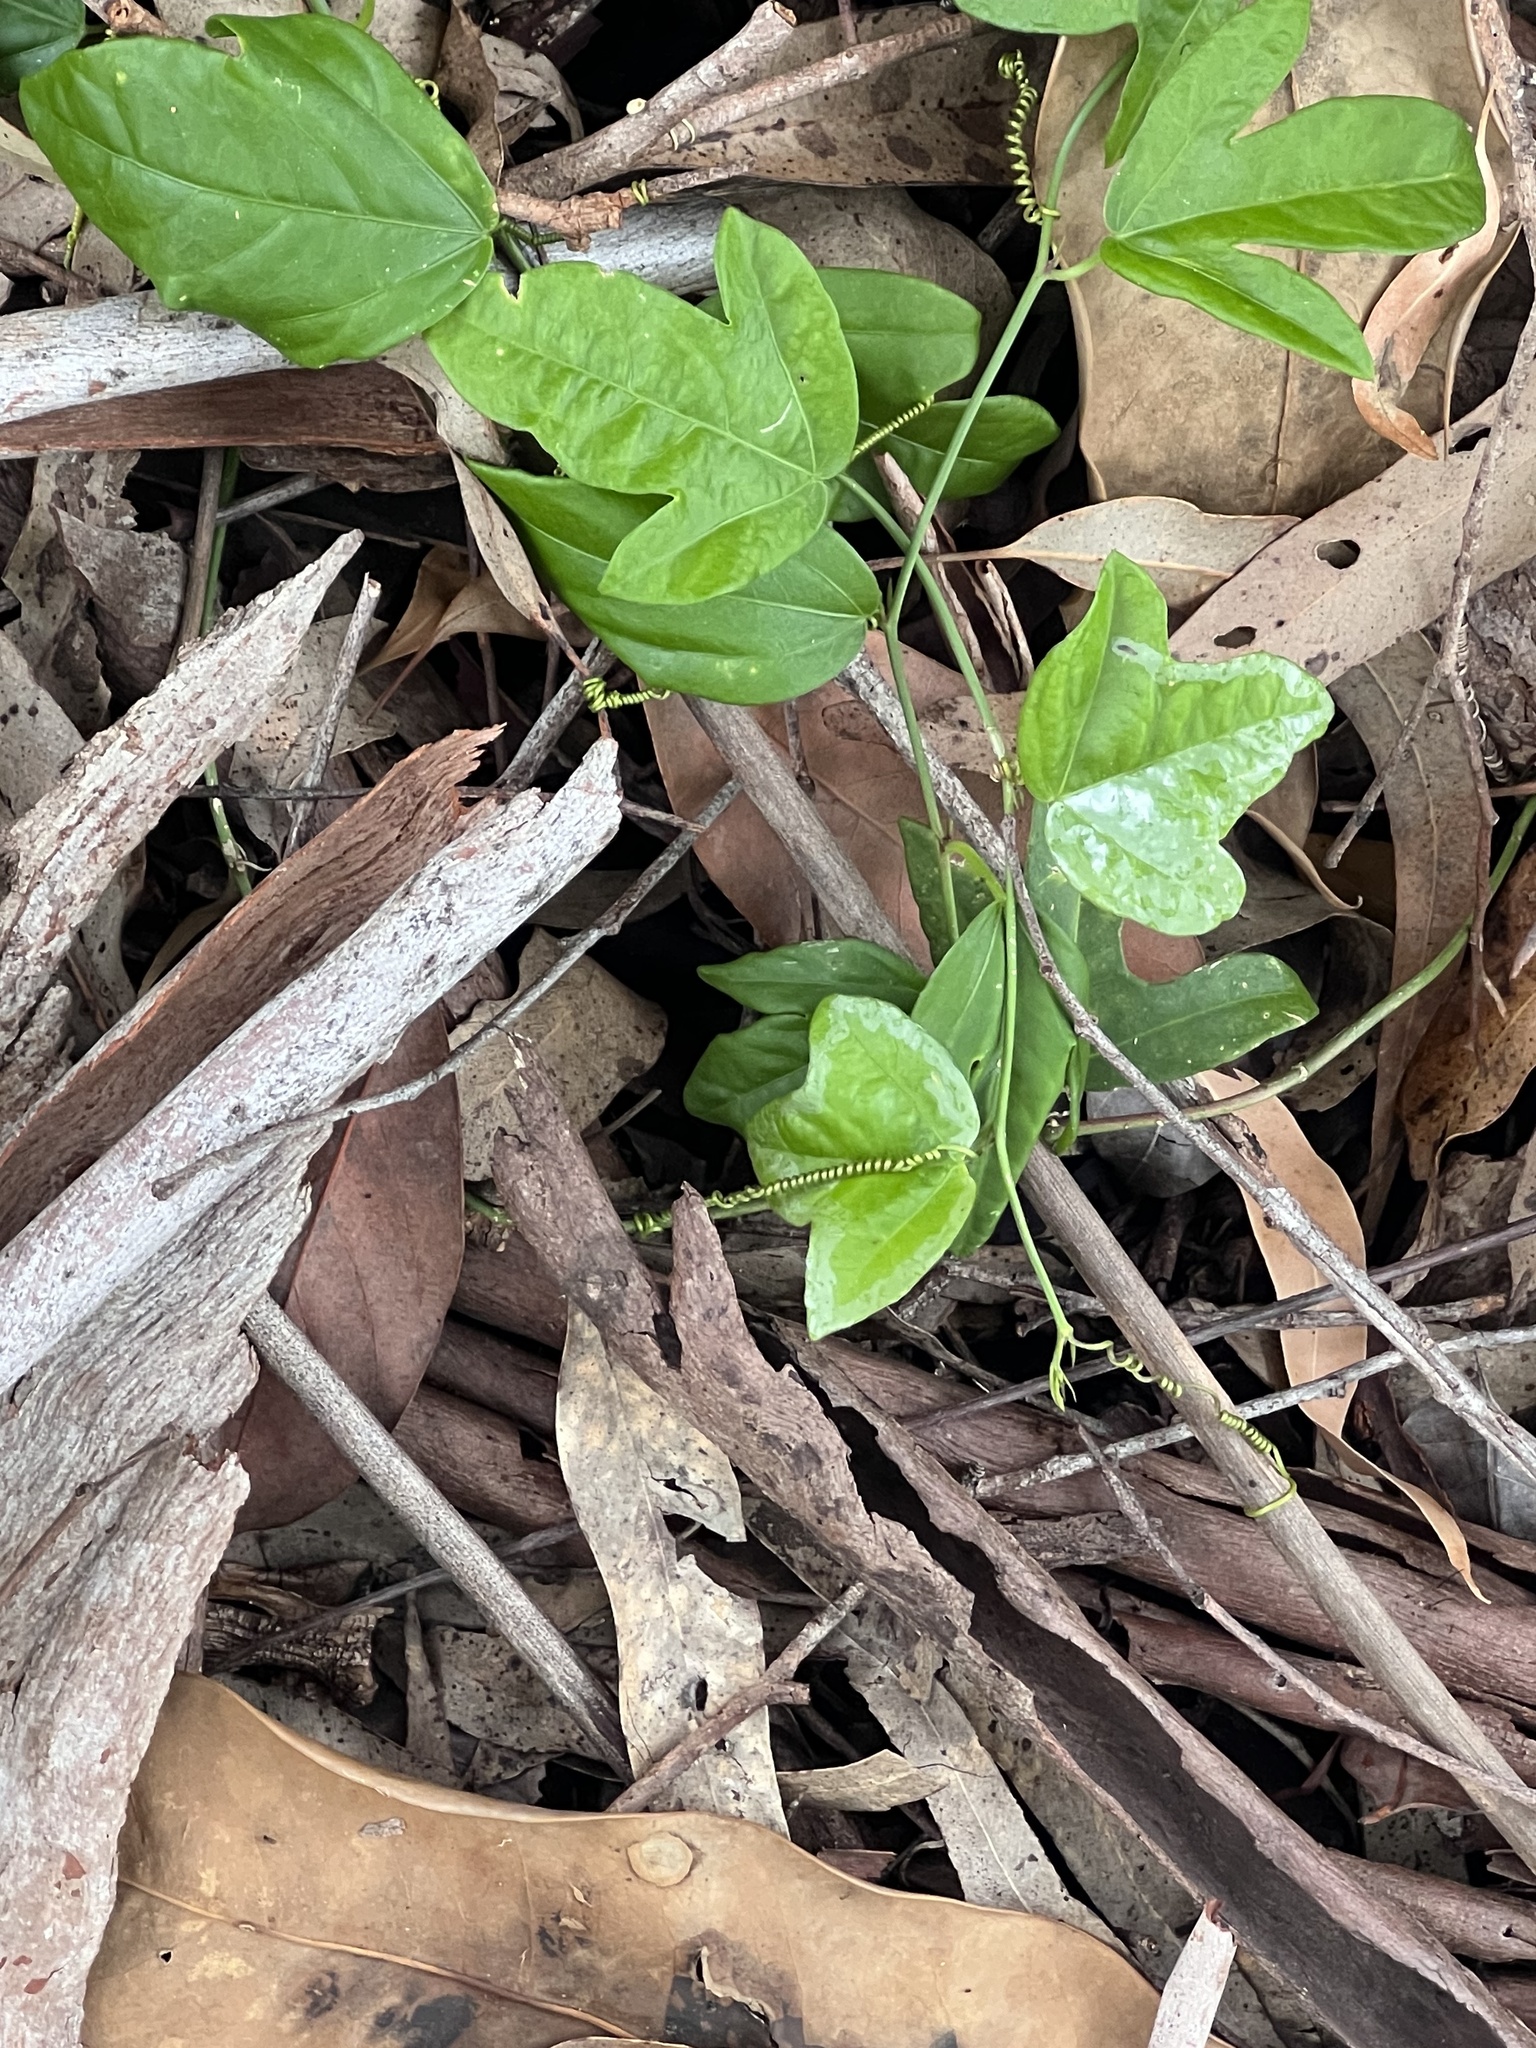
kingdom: Plantae
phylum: Tracheophyta
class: Magnoliopsida
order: Malpighiales
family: Passifloraceae
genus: Passiflora
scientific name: Passiflora suberosa
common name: Wild passionfruit
